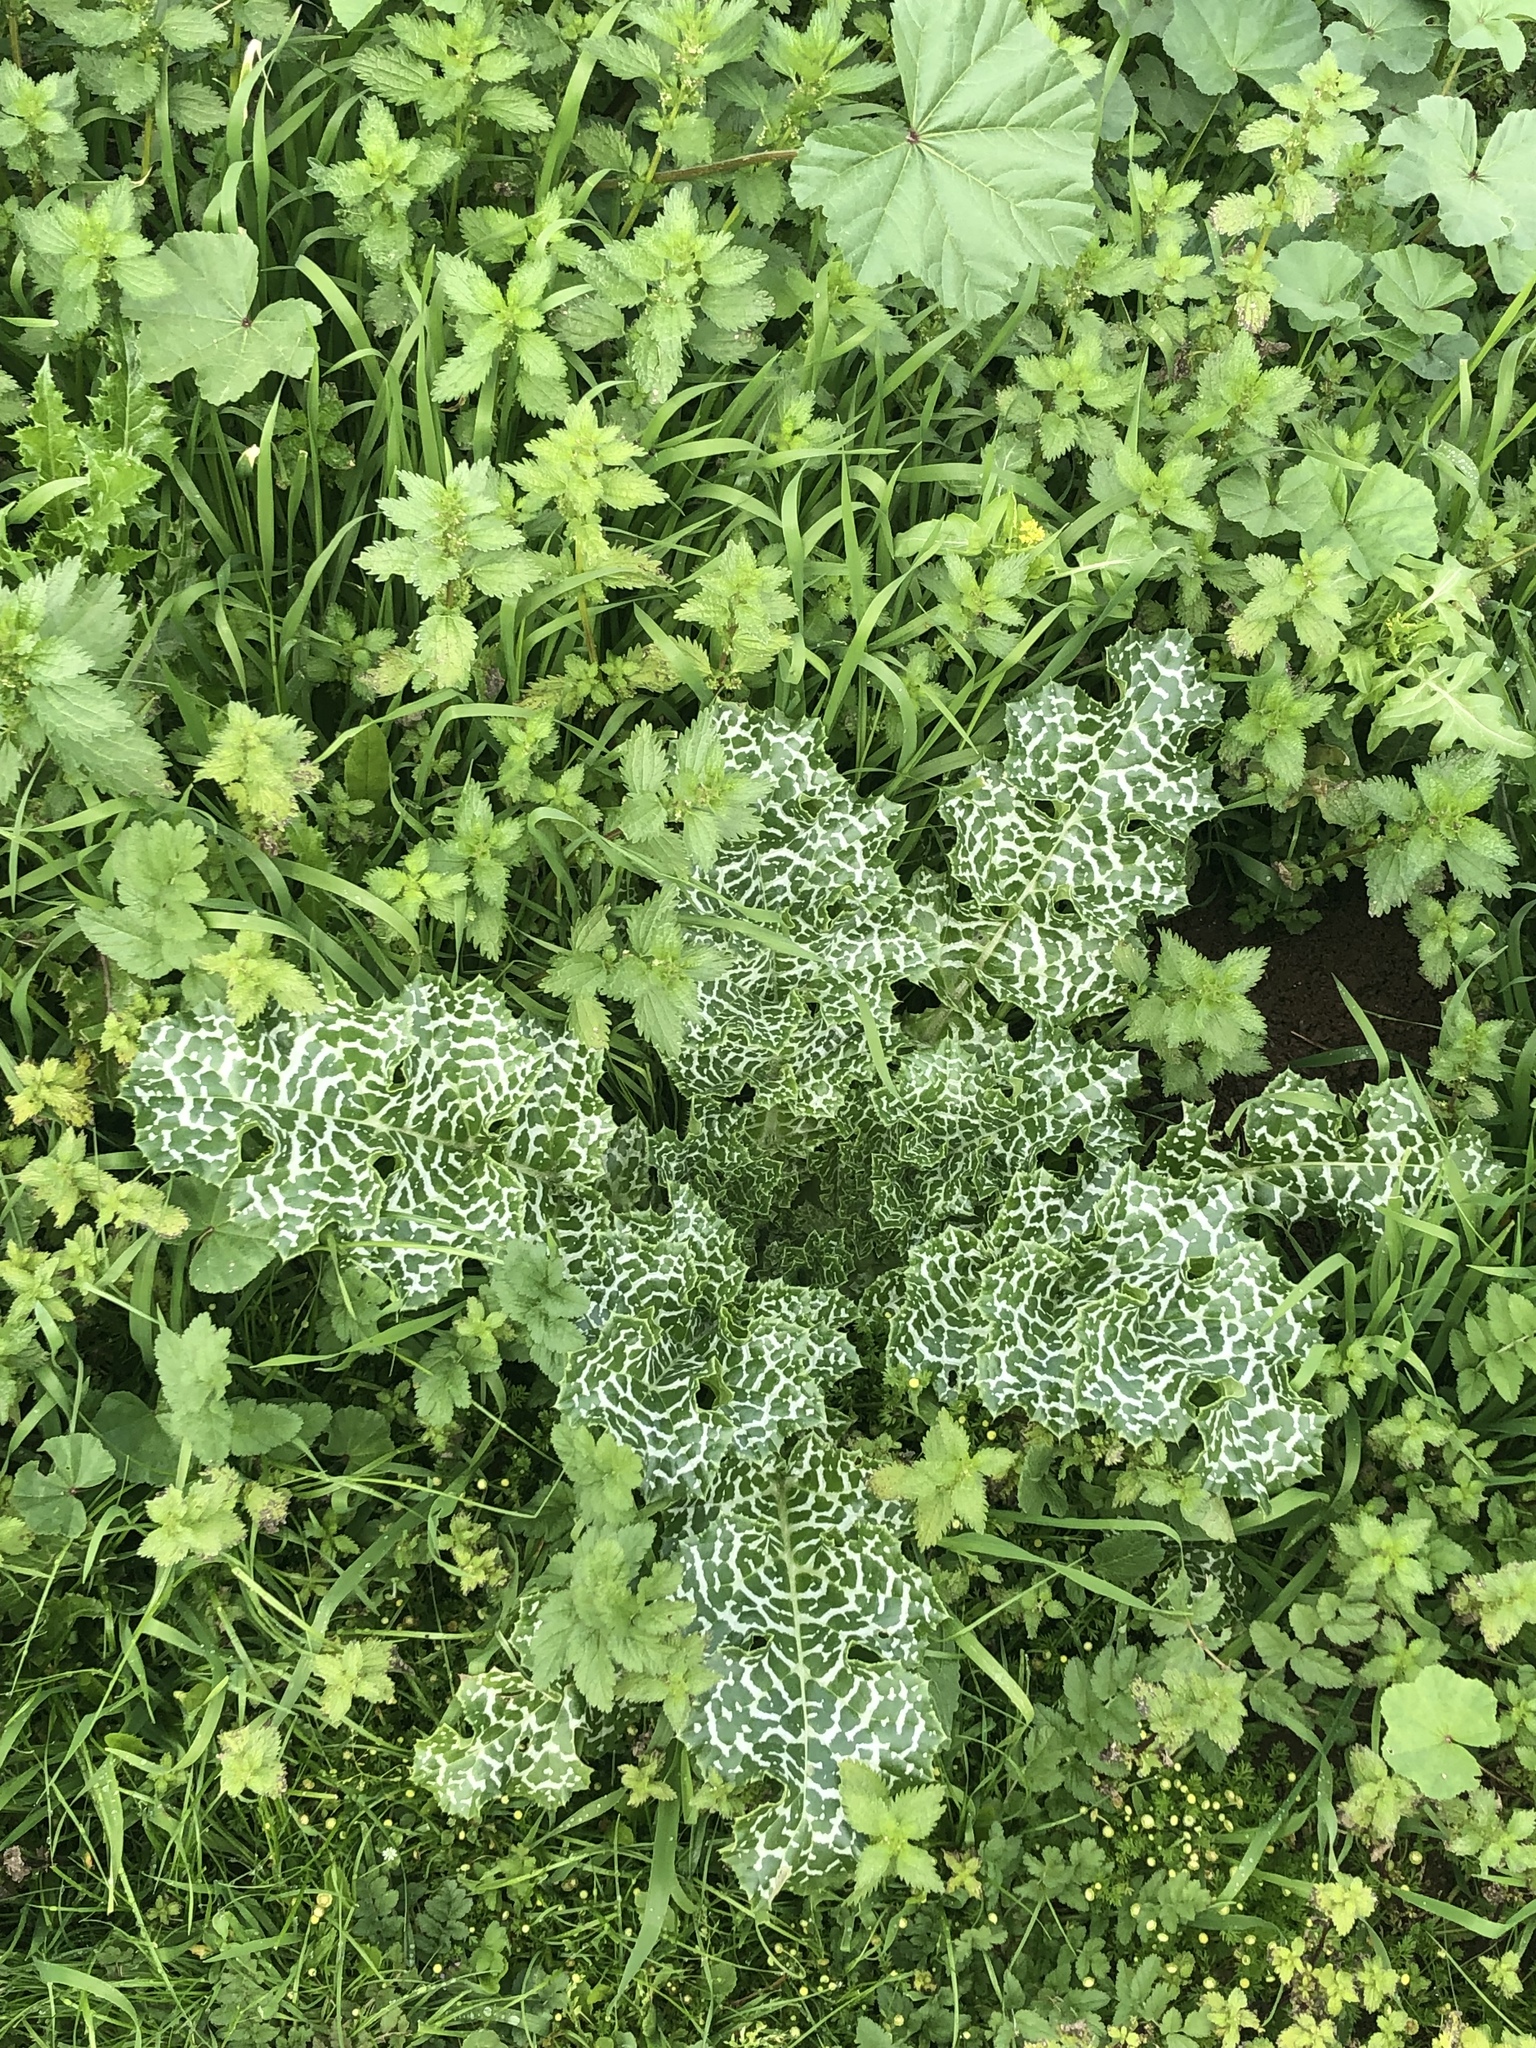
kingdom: Plantae
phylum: Tracheophyta
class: Magnoliopsida
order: Asterales
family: Asteraceae
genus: Silybum
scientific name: Silybum marianum
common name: Milk thistle
